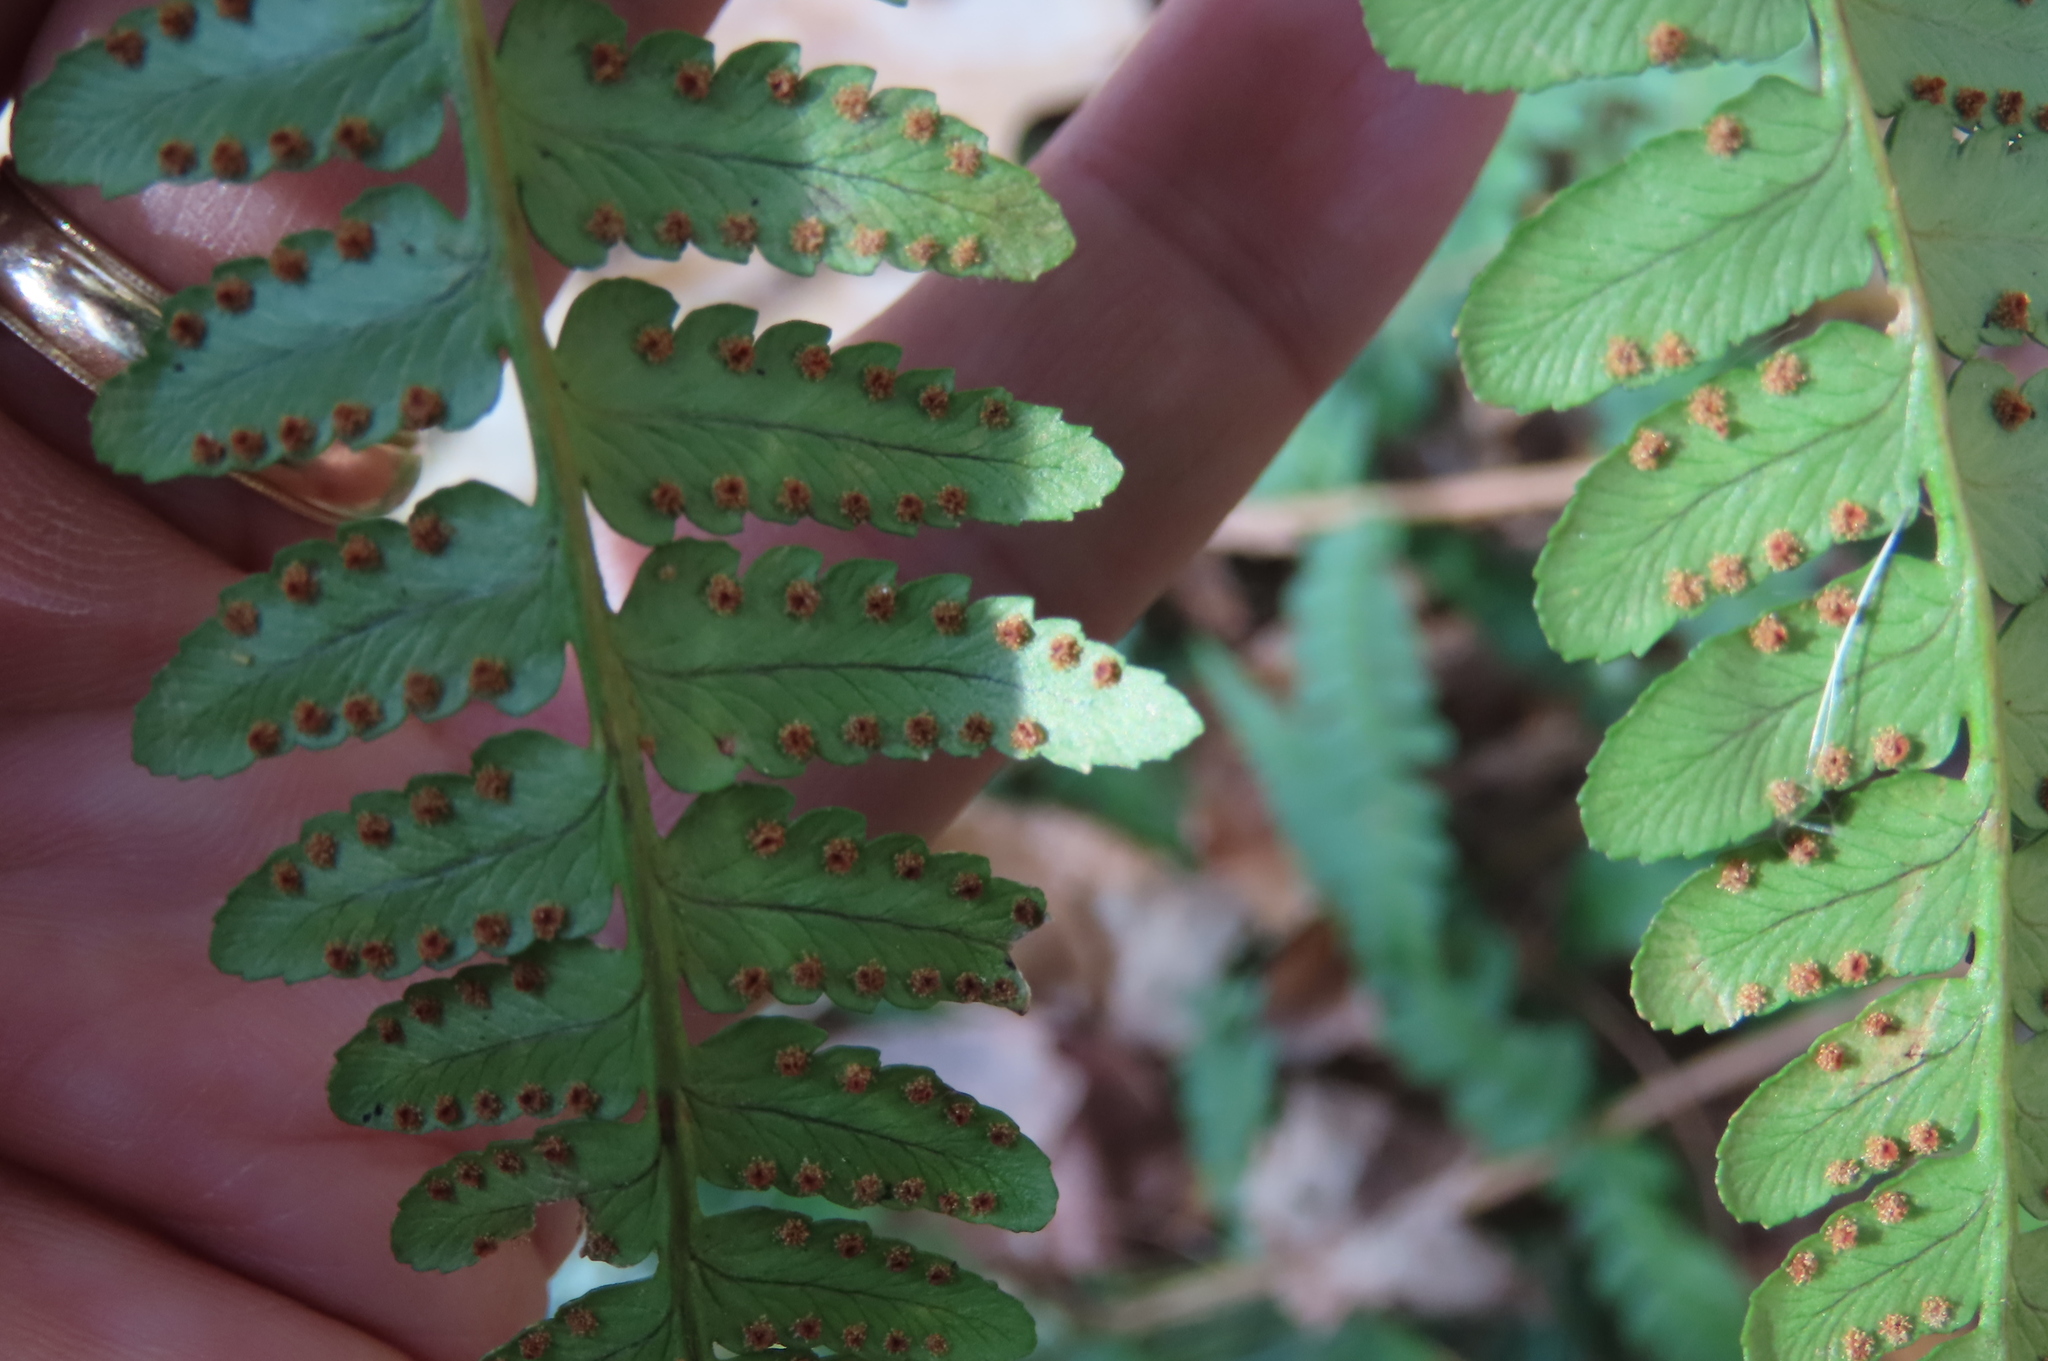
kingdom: Plantae
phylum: Tracheophyta
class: Polypodiopsida
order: Polypodiales
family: Dryopteridaceae
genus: Dryopteris
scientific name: Dryopteris marginalis
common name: Marginal wood fern
